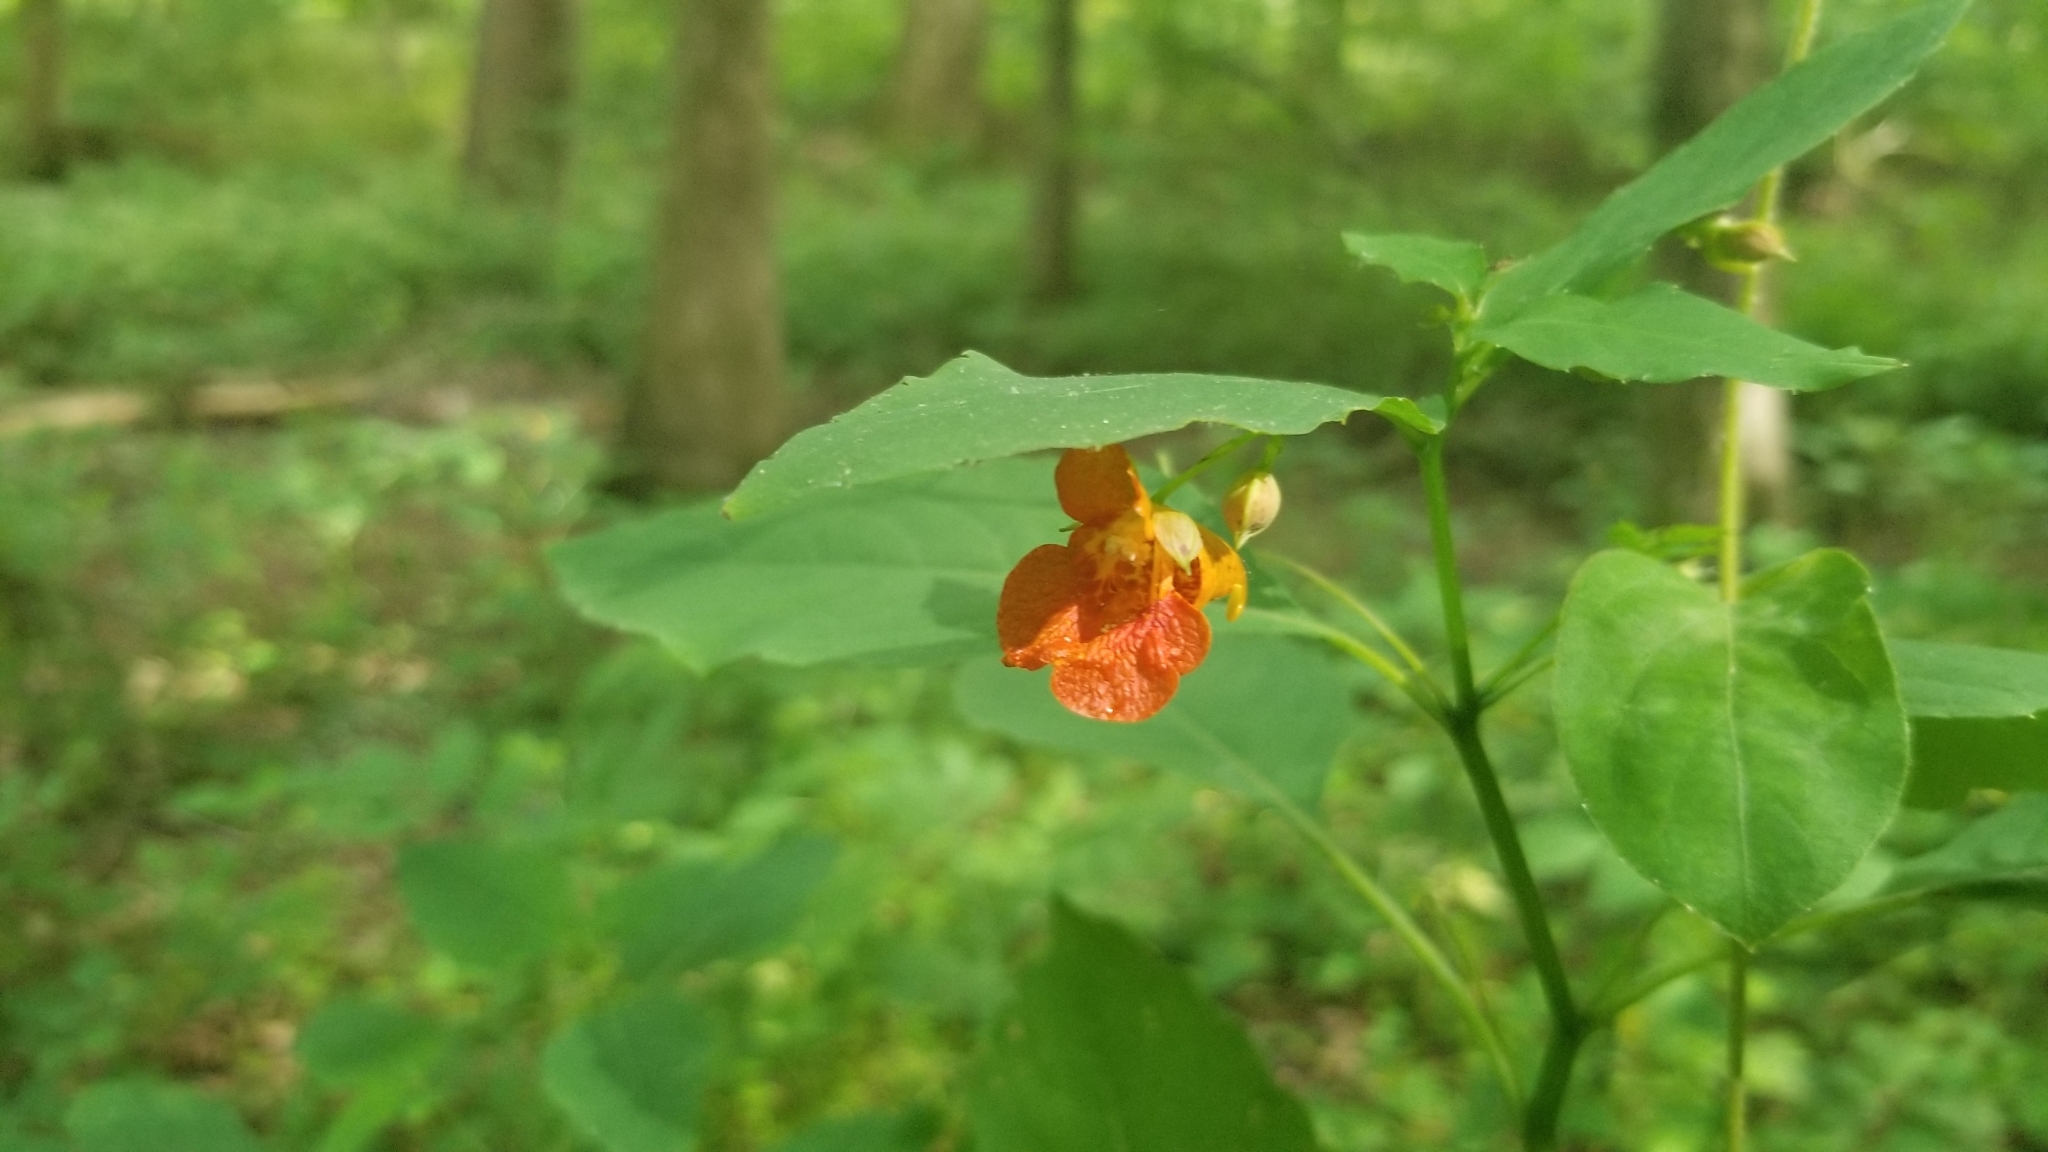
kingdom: Plantae
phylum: Tracheophyta
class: Magnoliopsida
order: Ericales
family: Balsaminaceae
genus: Impatiens
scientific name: Impatiens capensis
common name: Orange balsam
